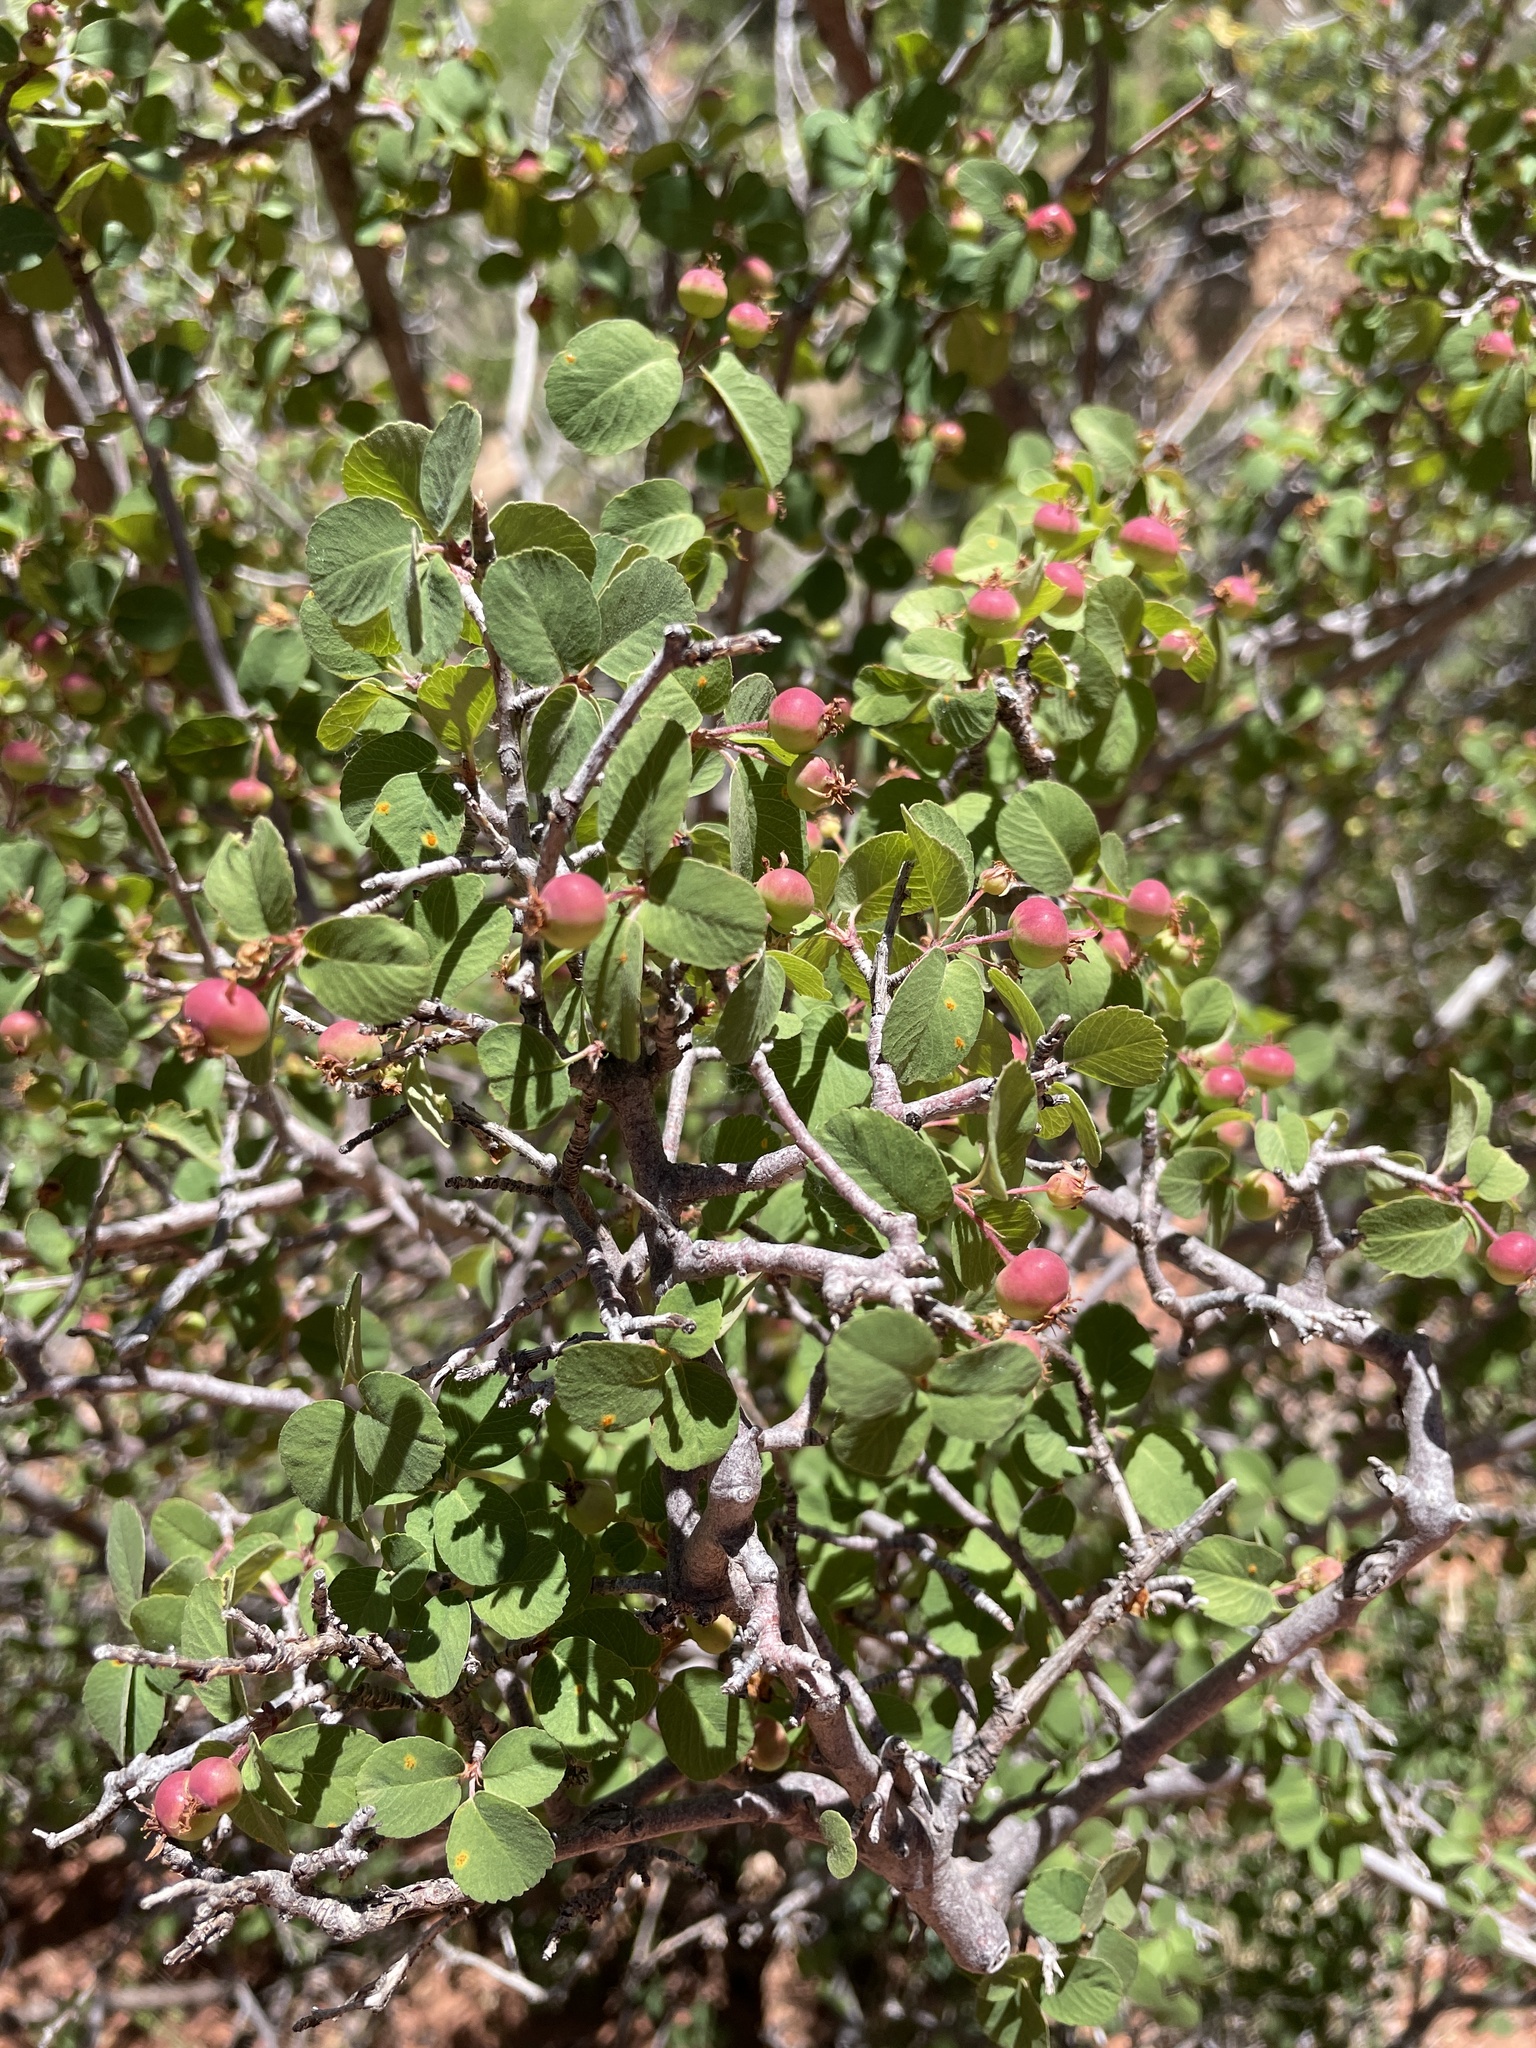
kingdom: Plantae
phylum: Tracheophyta
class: Magnoliopsida
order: Rosales
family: Rosaceae
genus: Amelanchier
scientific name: Amelanchier utahensis
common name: Utah serviceberry
